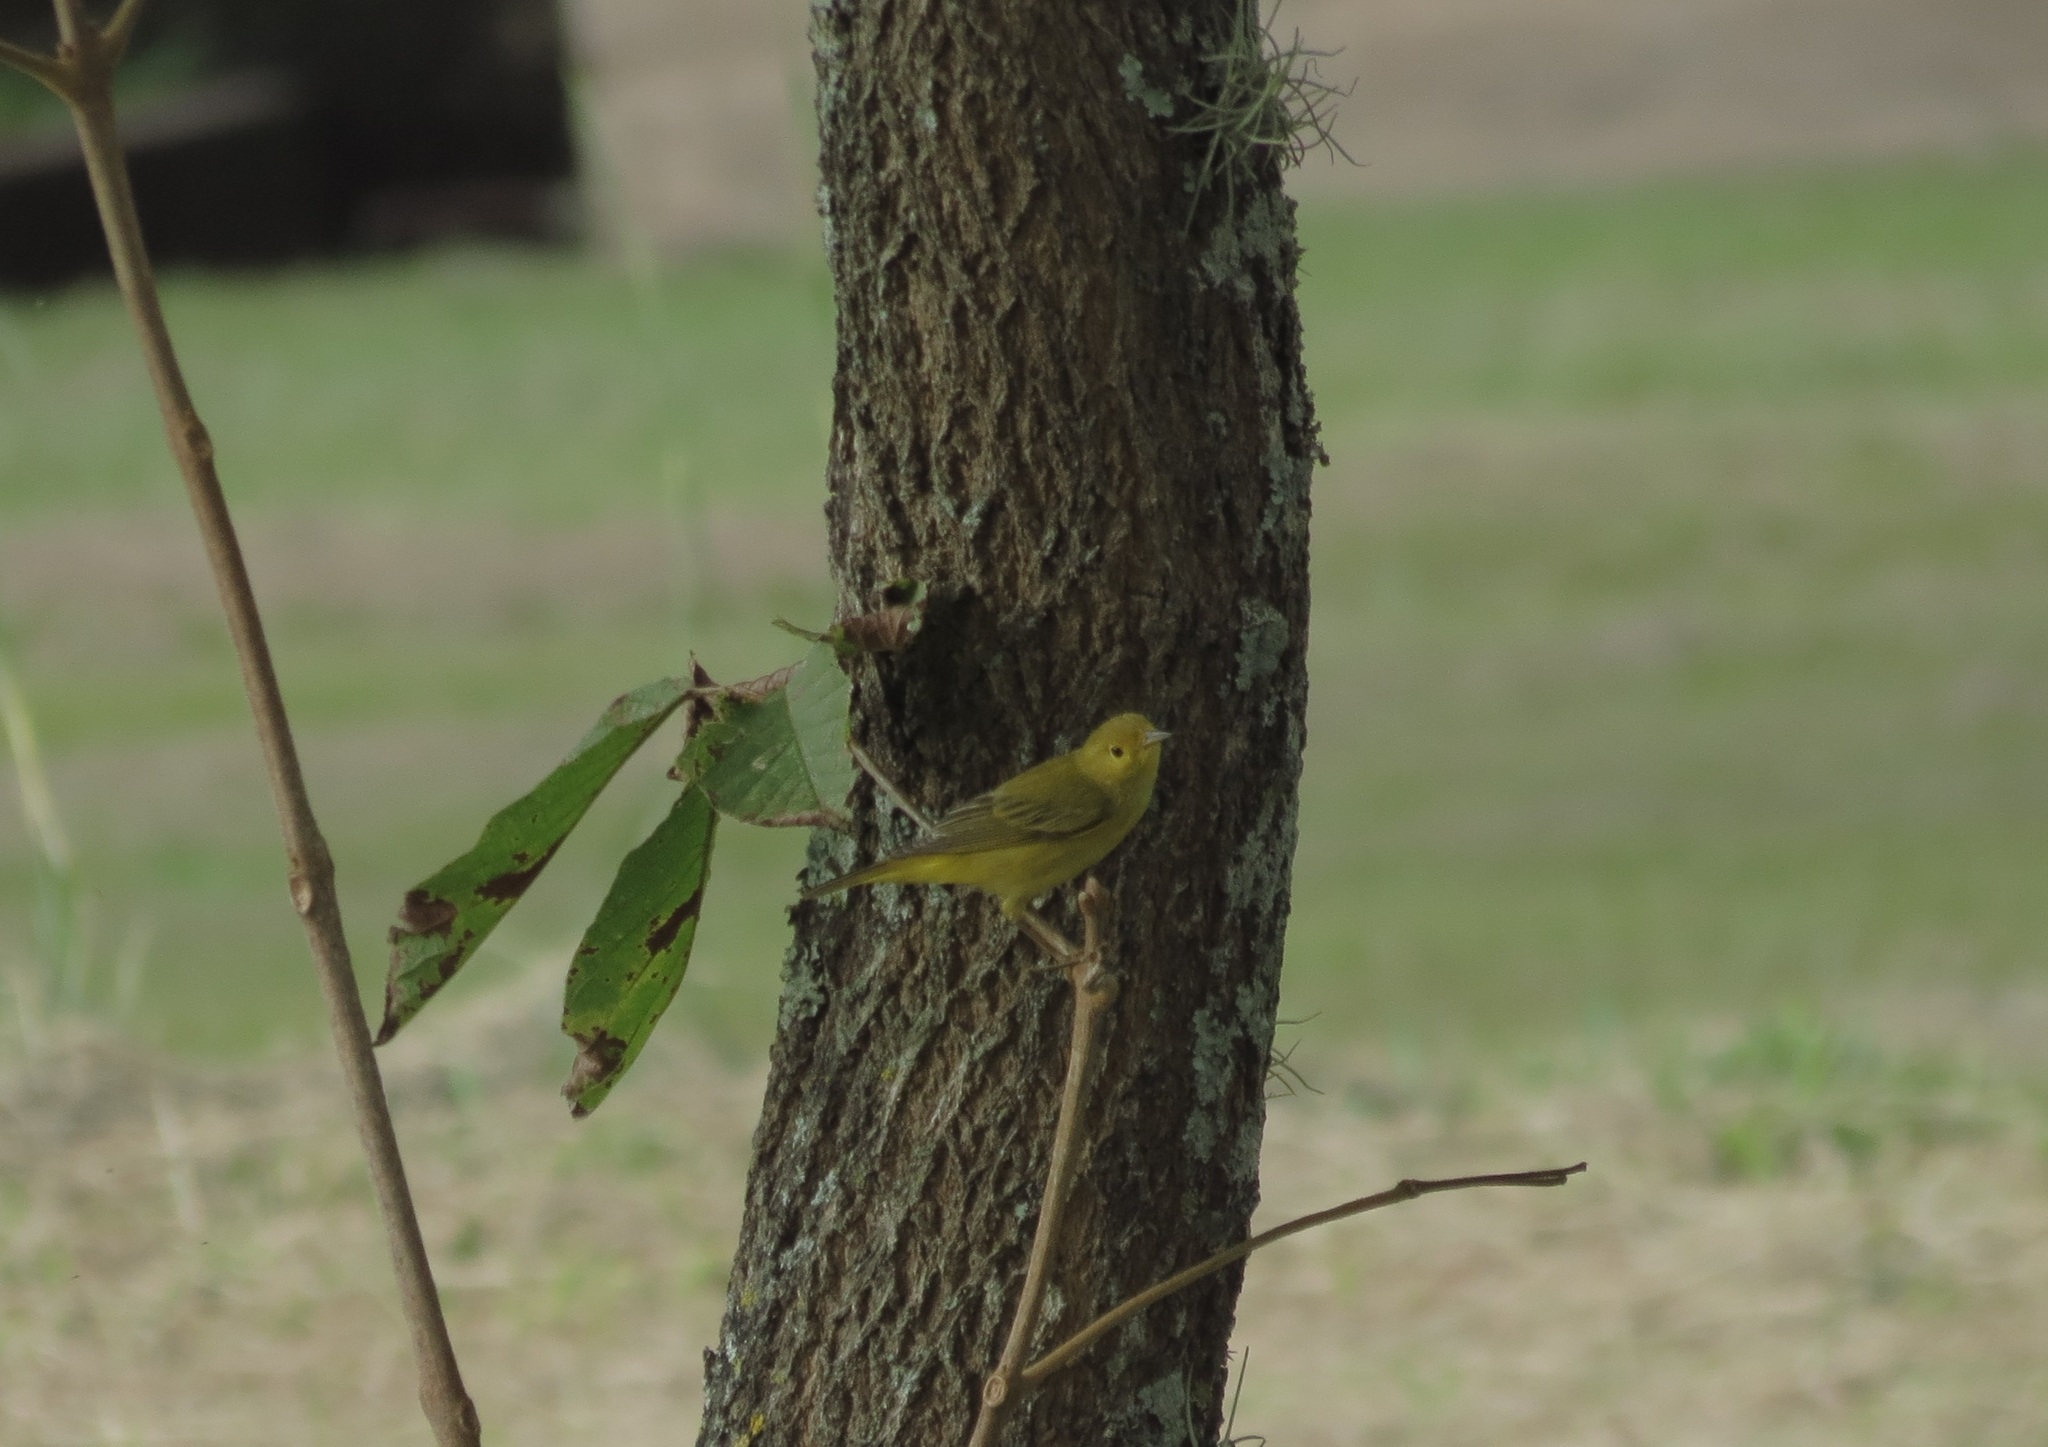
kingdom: Animalia
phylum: Chordata
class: Aves
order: Passeriformes
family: Parulidae
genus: Setophaga
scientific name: Setophaga petechia
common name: Yellow warbler
